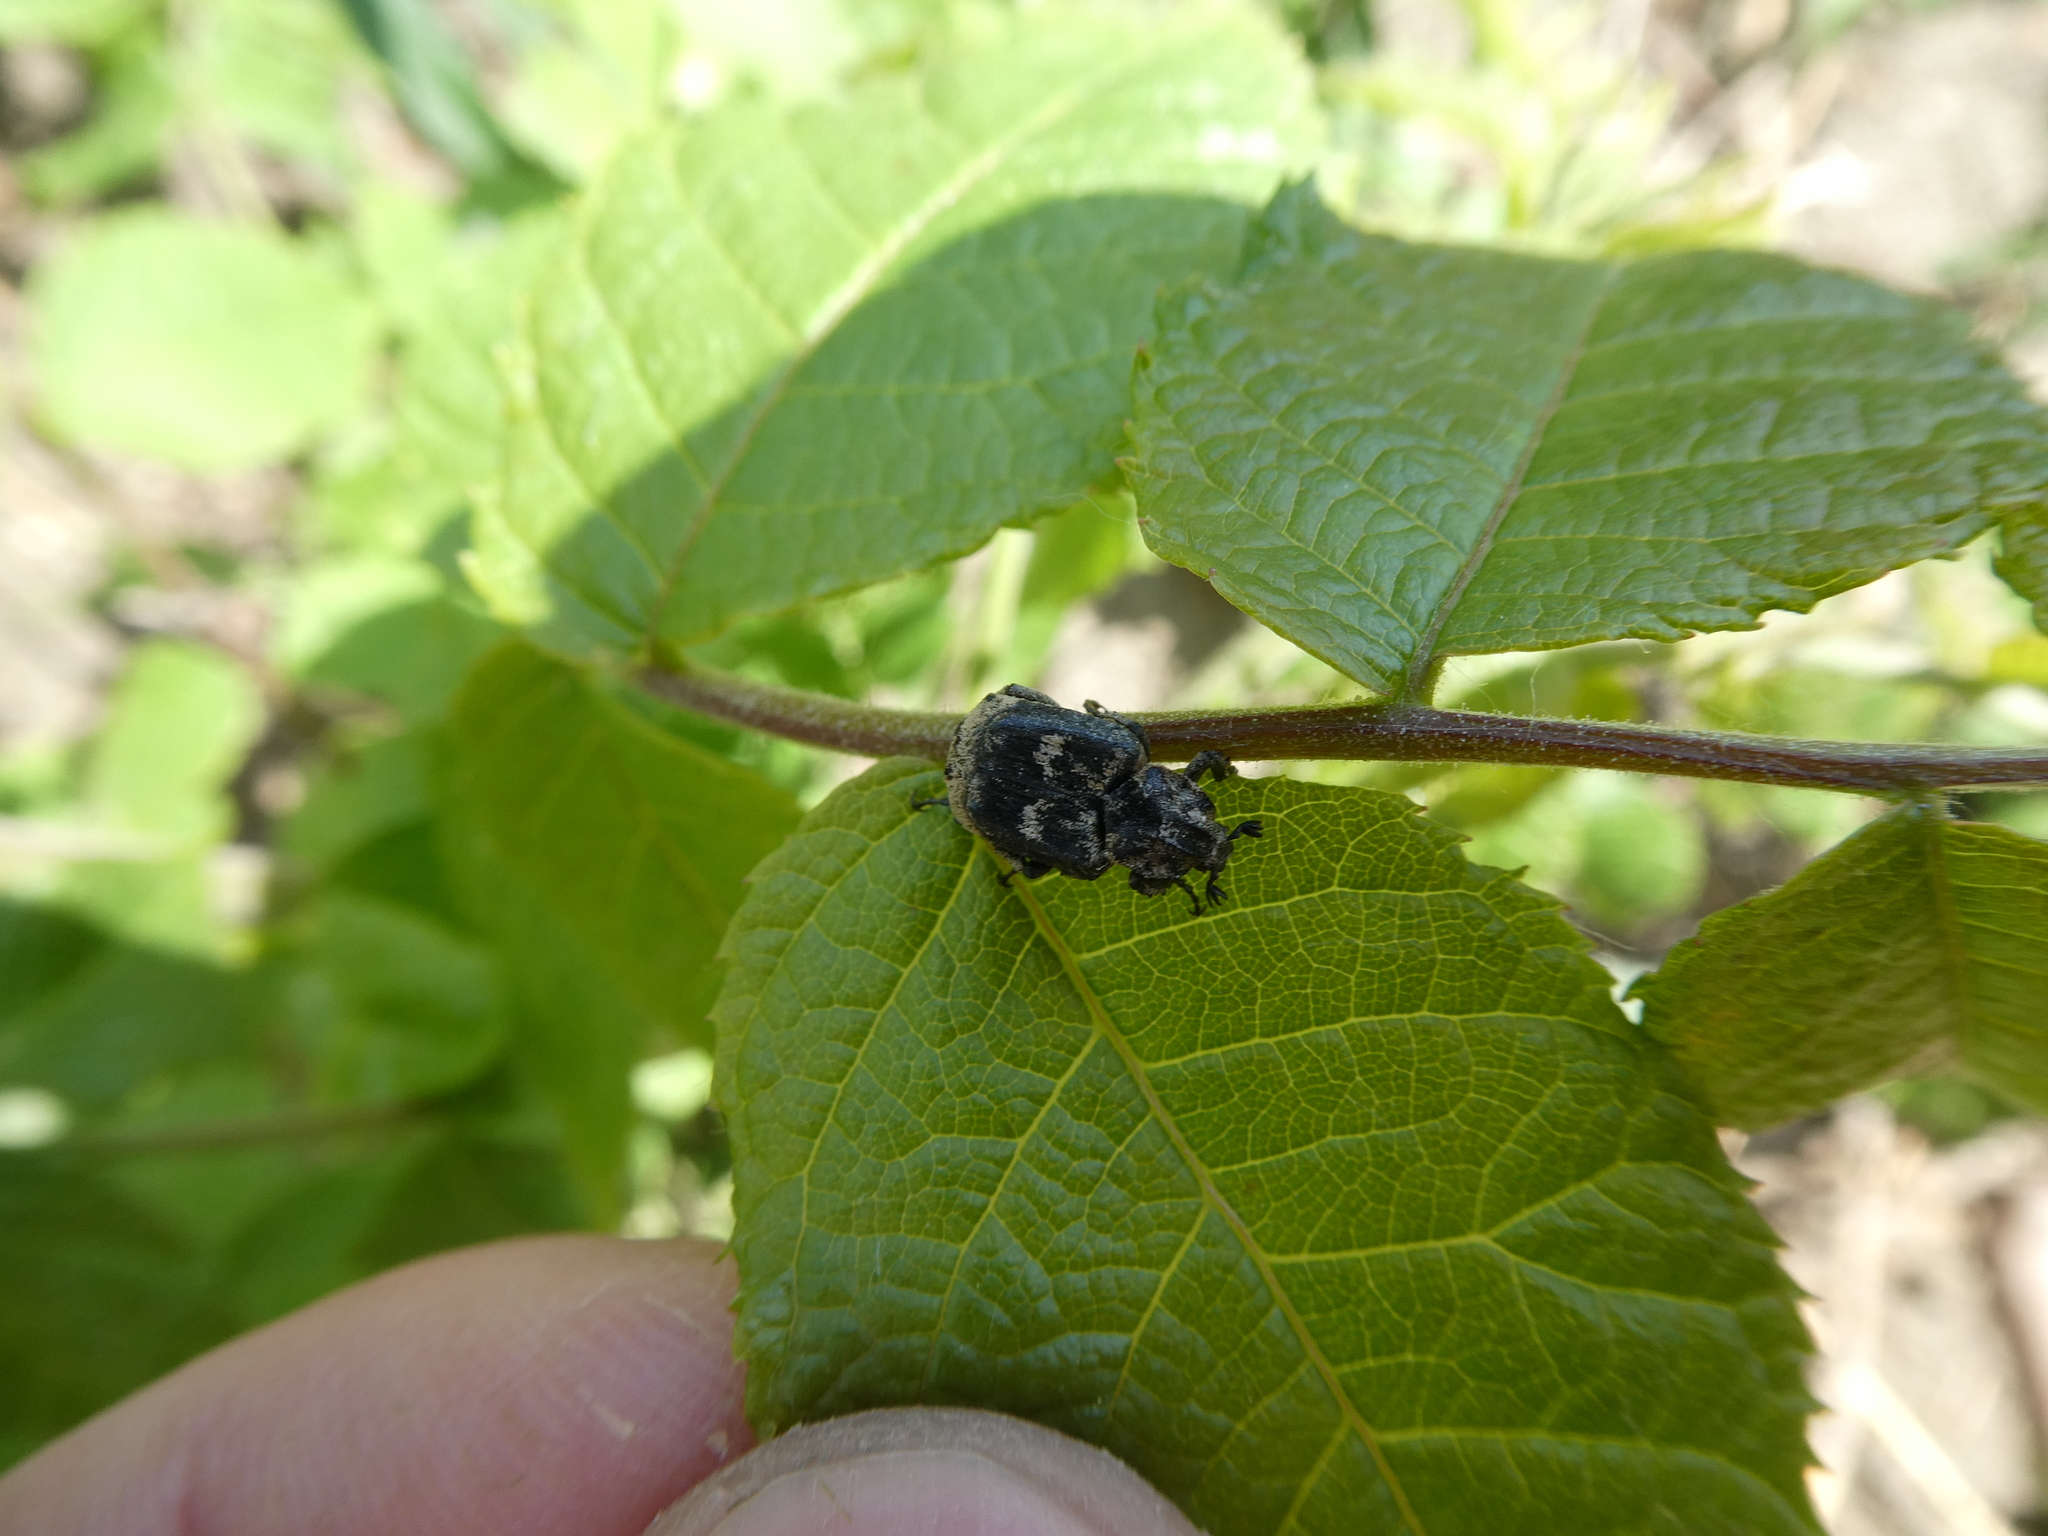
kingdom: Animalia
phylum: Arthropoda
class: Insecta
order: Coleoptera
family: Scarabaeidae
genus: Valgus
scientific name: Valgus hemipterus
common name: Bug flower chafer
